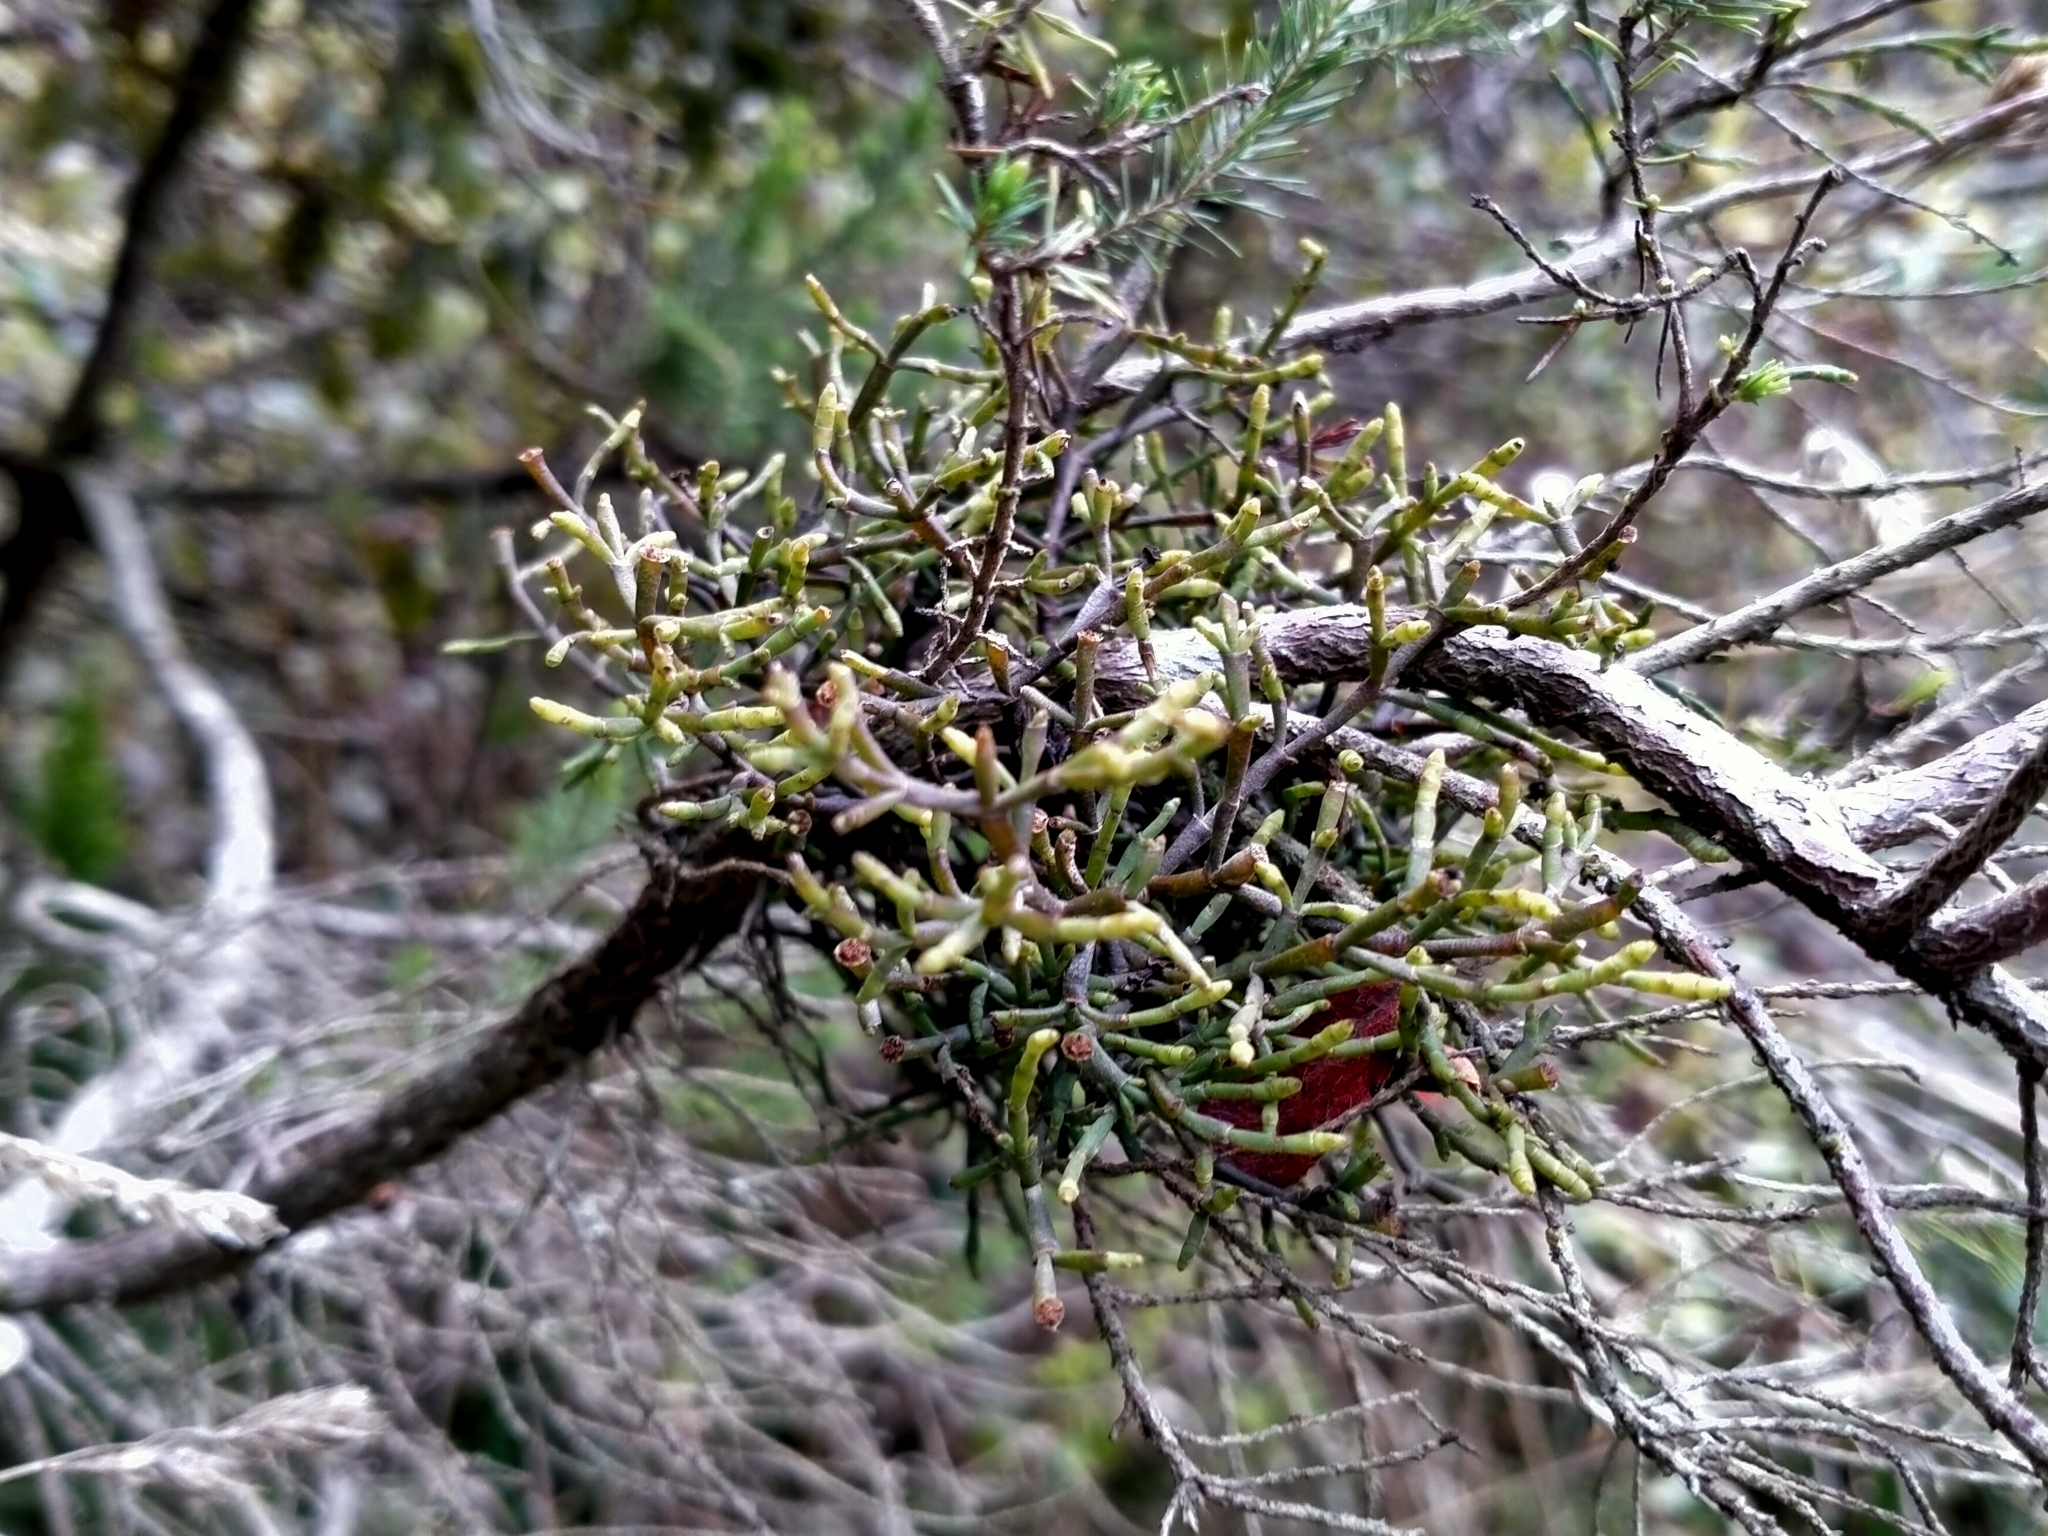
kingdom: Plantae
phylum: Tracheophyta
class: Magnoliopsida
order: Santalales
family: Viscaceae
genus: Korthalsella
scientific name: Korthalsella salicornioides
